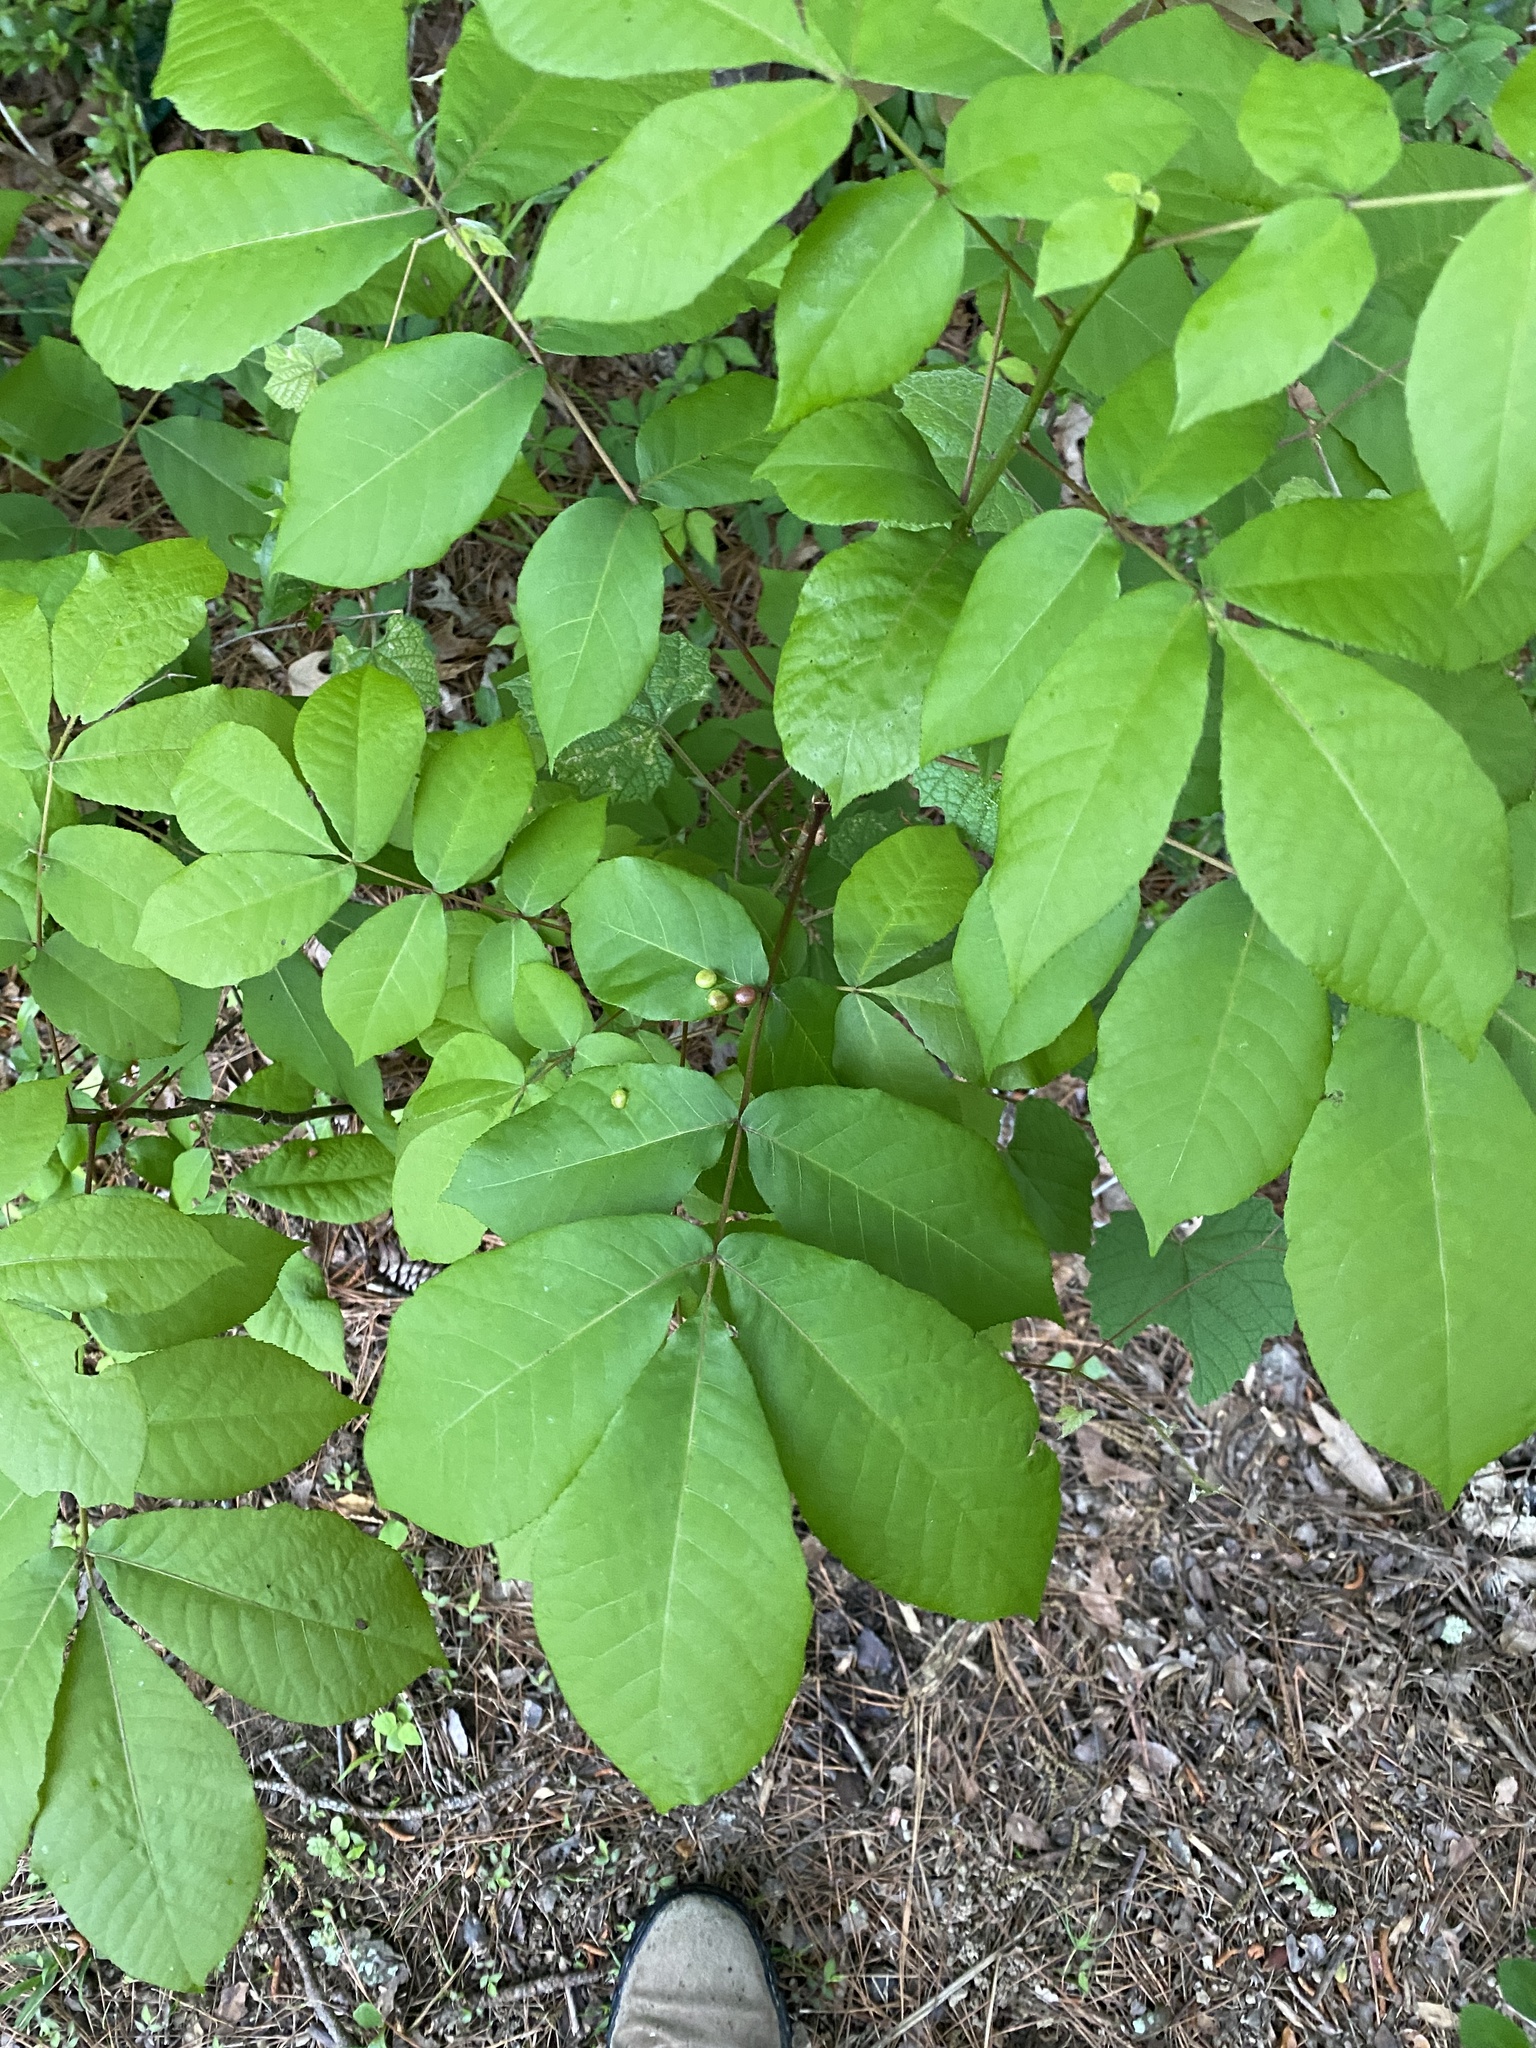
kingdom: Animalia
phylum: Arthropoda
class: Insecta
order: Hemiptera
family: Phylloxeridae
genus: Daktulosphaira
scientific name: Daktulosphaira conicum
